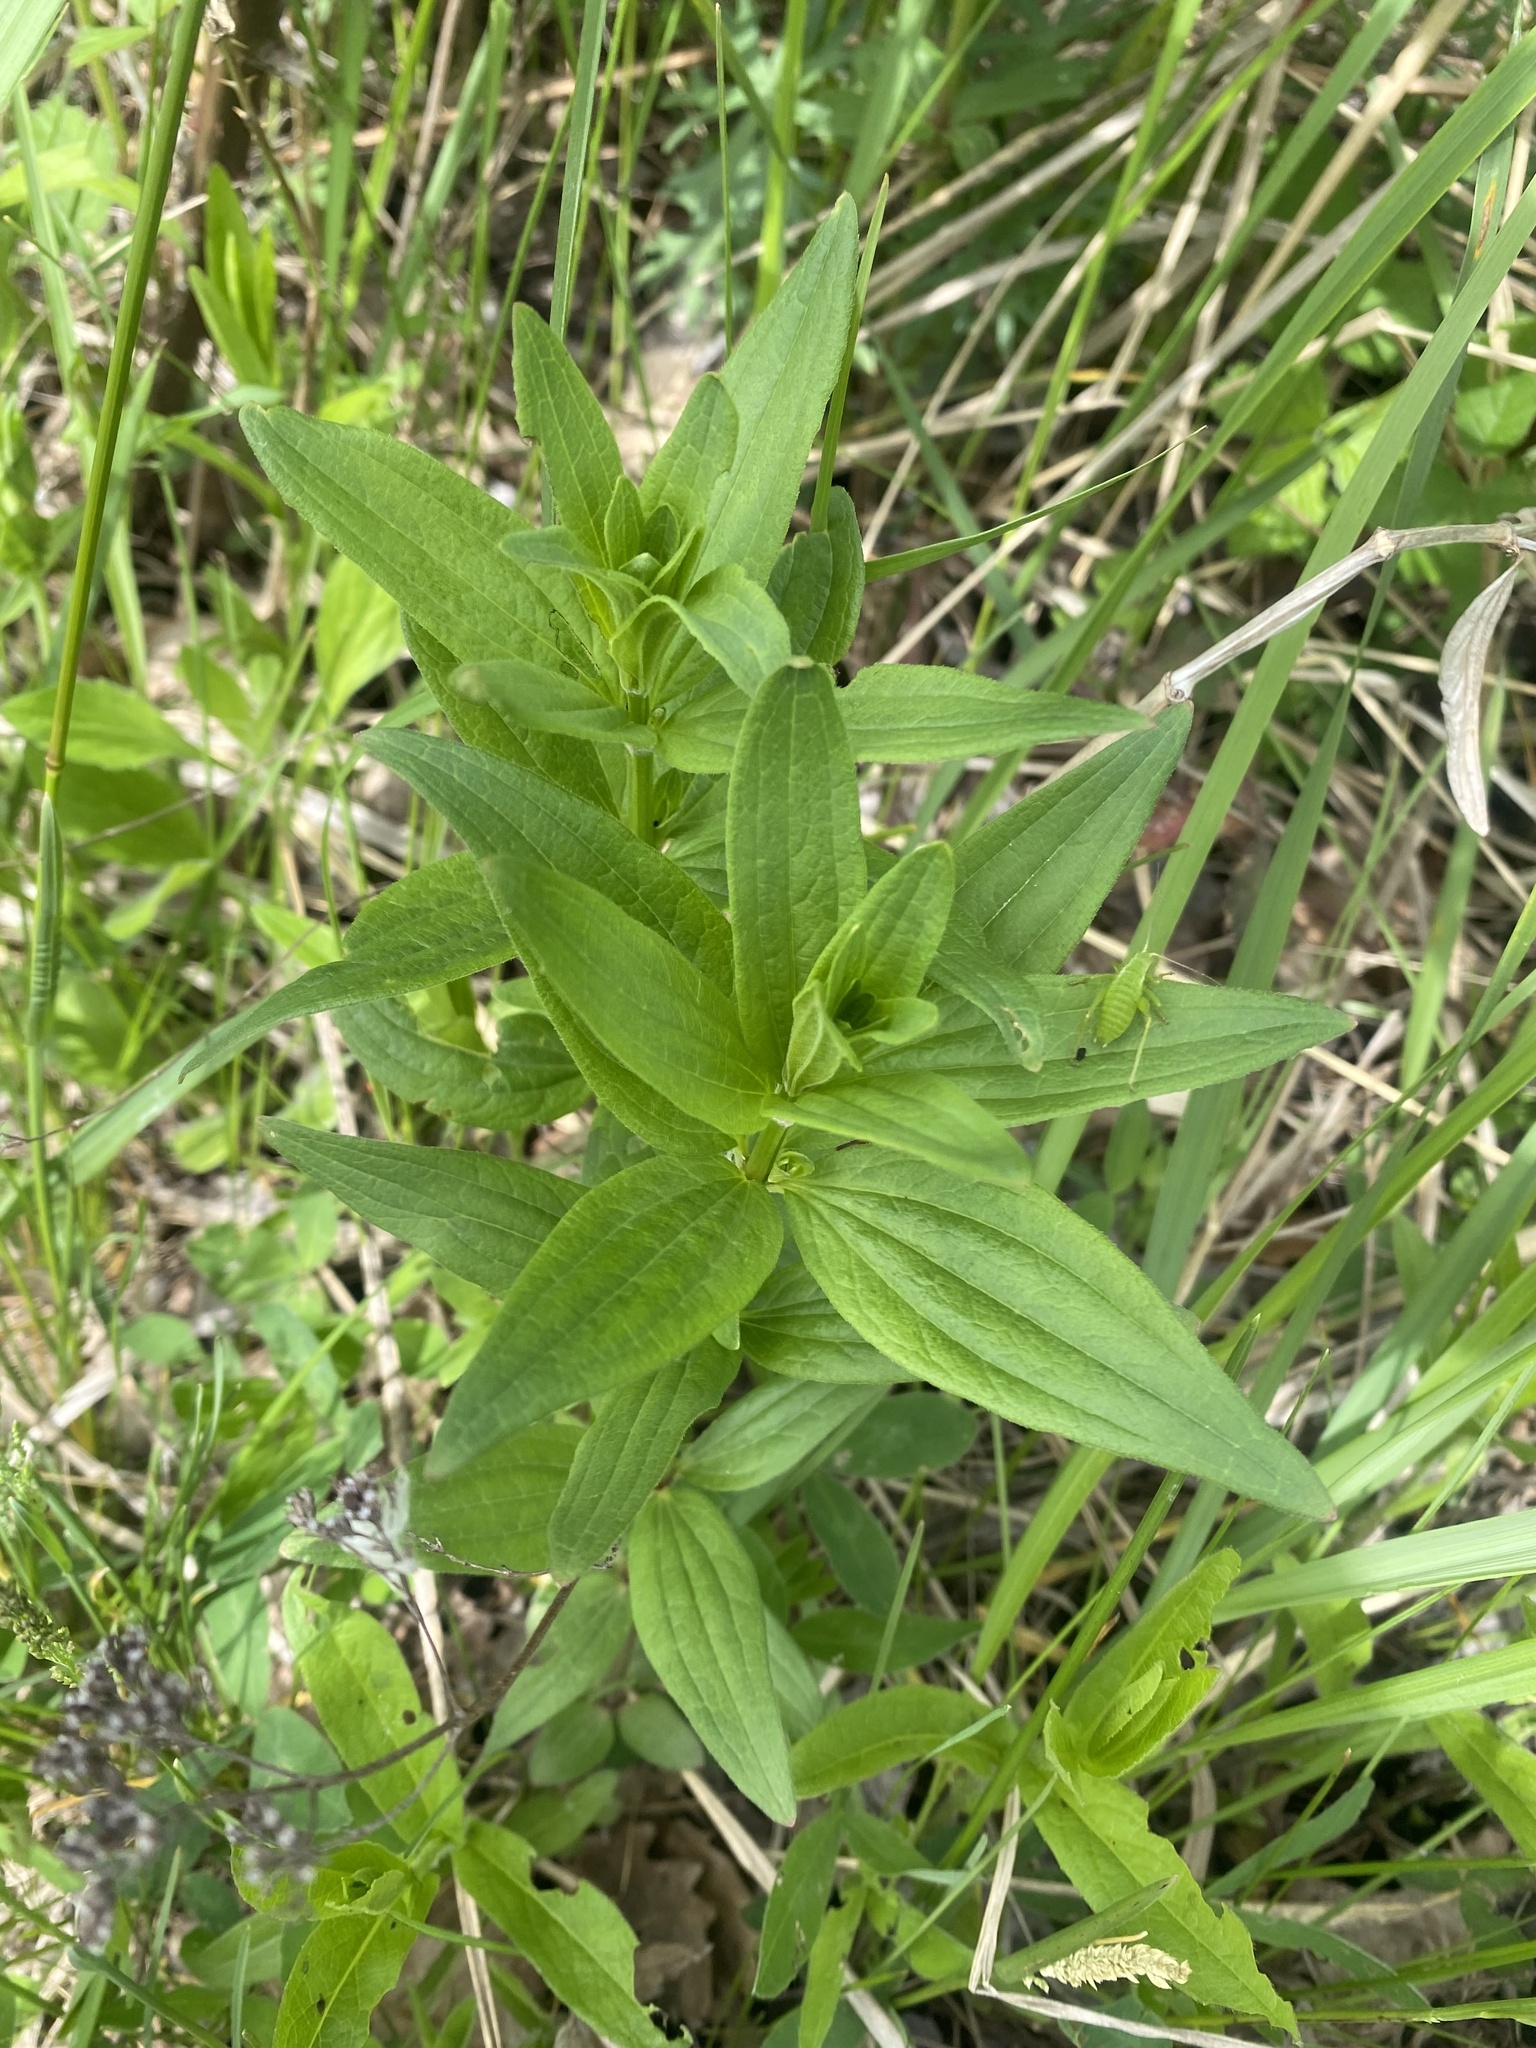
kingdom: Plantae
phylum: Tracheophyta
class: Magnoliopsida
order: Gentianales
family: Rubiaceae
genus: Galium
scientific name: Galium rubioides
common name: European bedstraw
